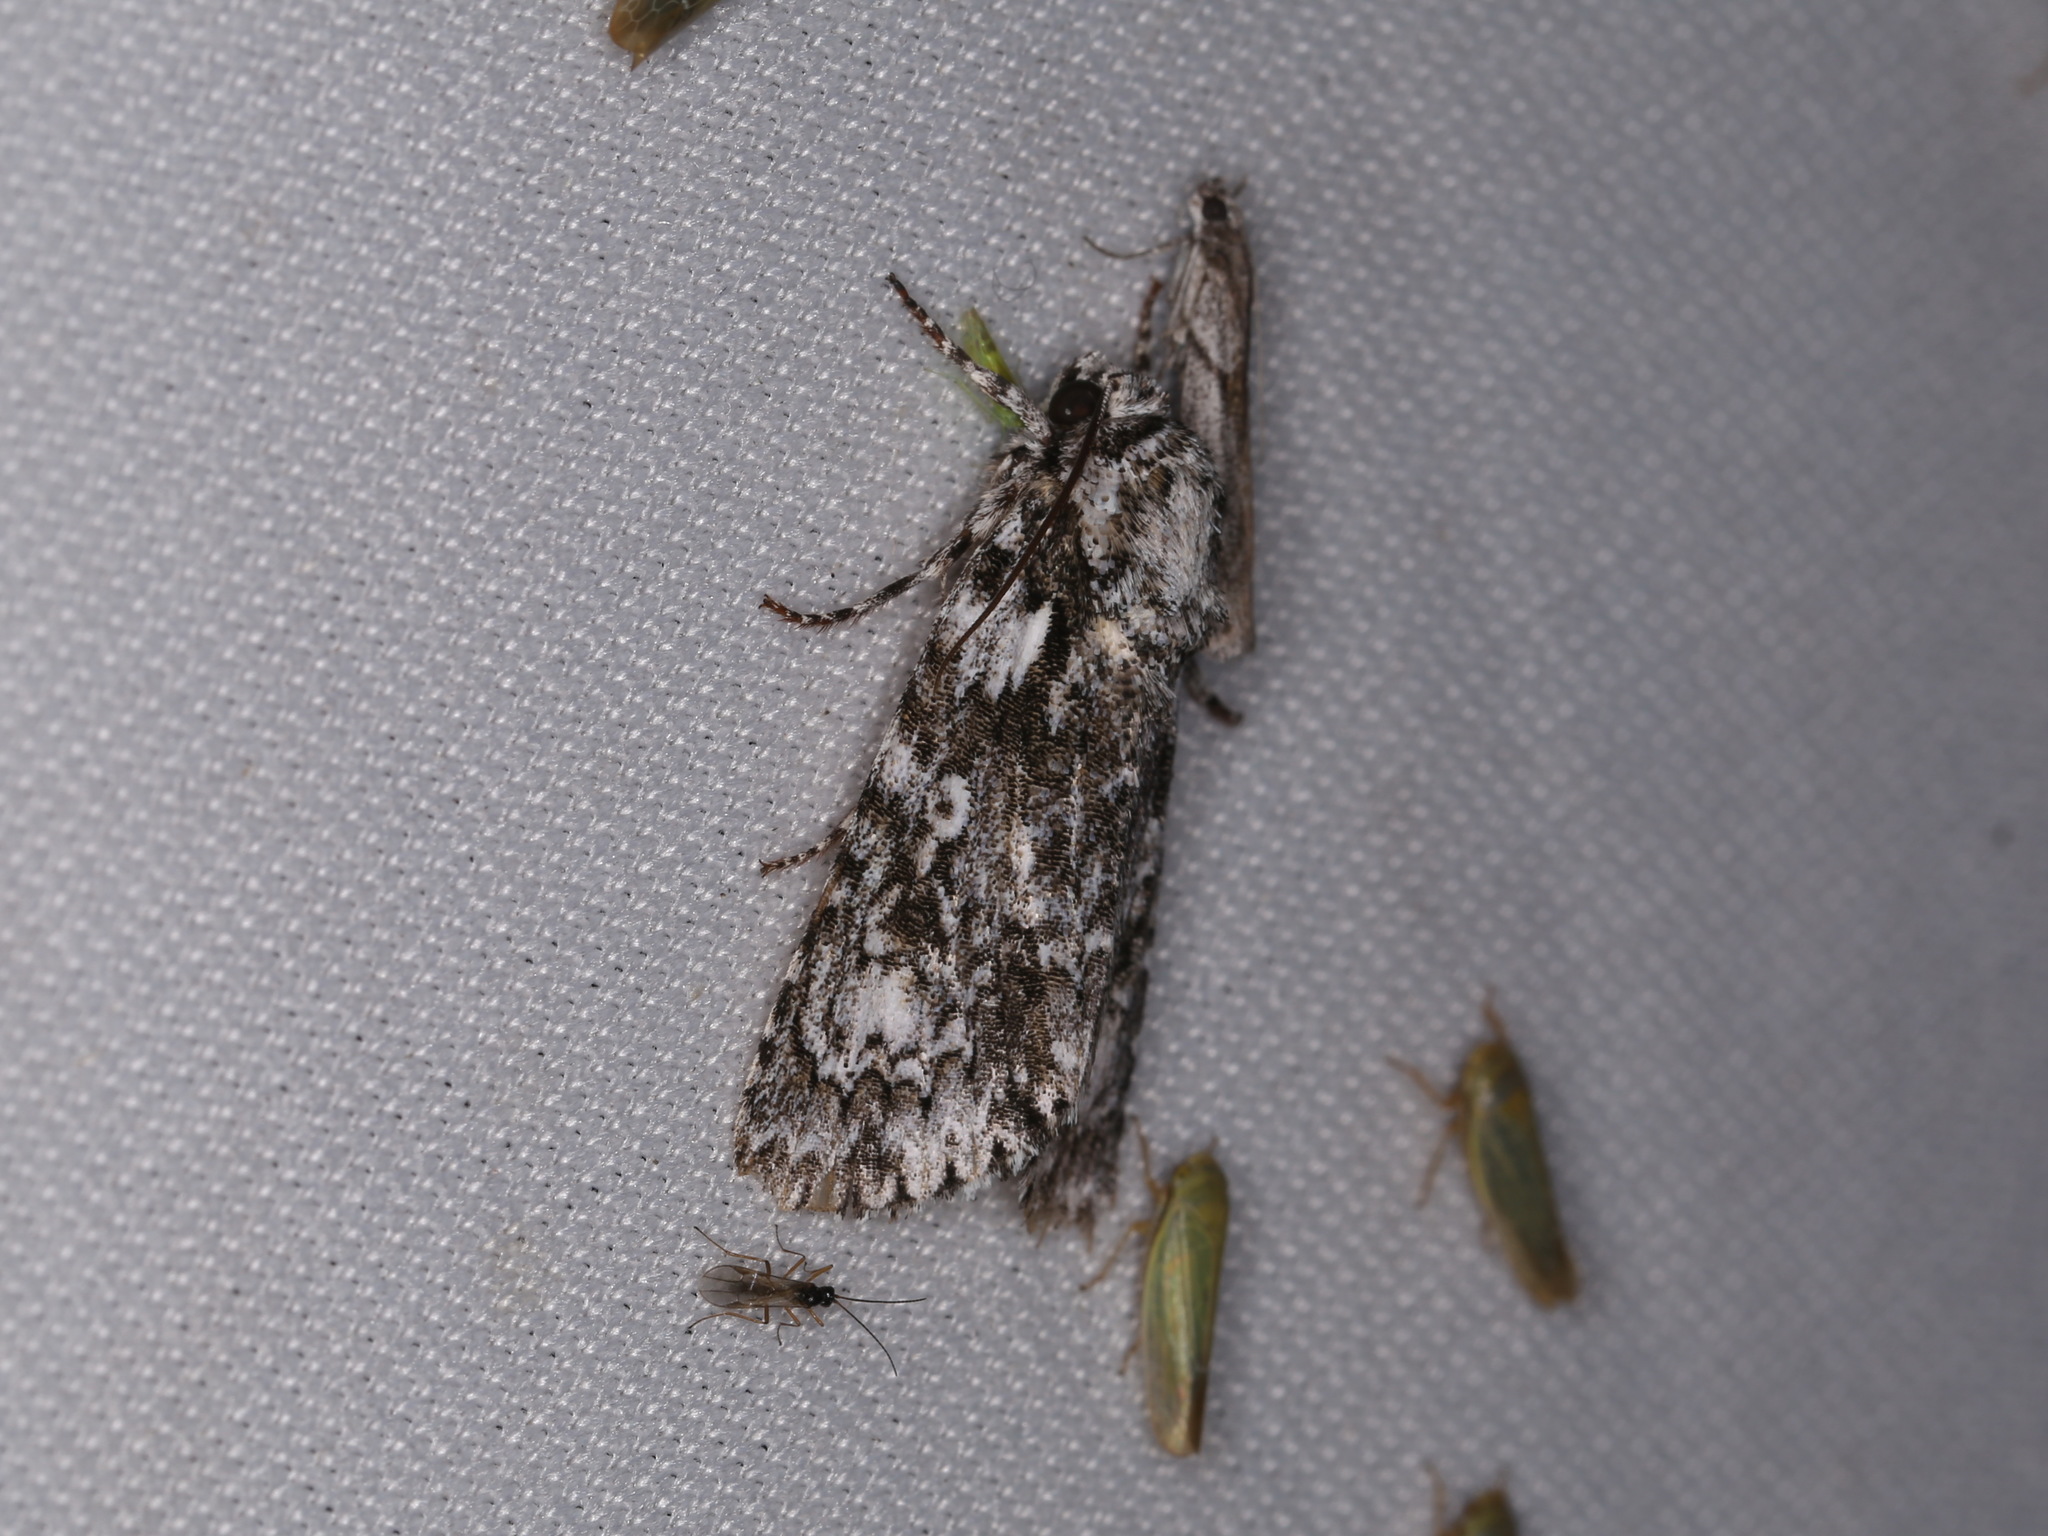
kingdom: Animalia
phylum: Arthropoda
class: Insecta
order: Lepidoptera
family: Noctuidae
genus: Acronicta
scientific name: Acronicta marmorata
